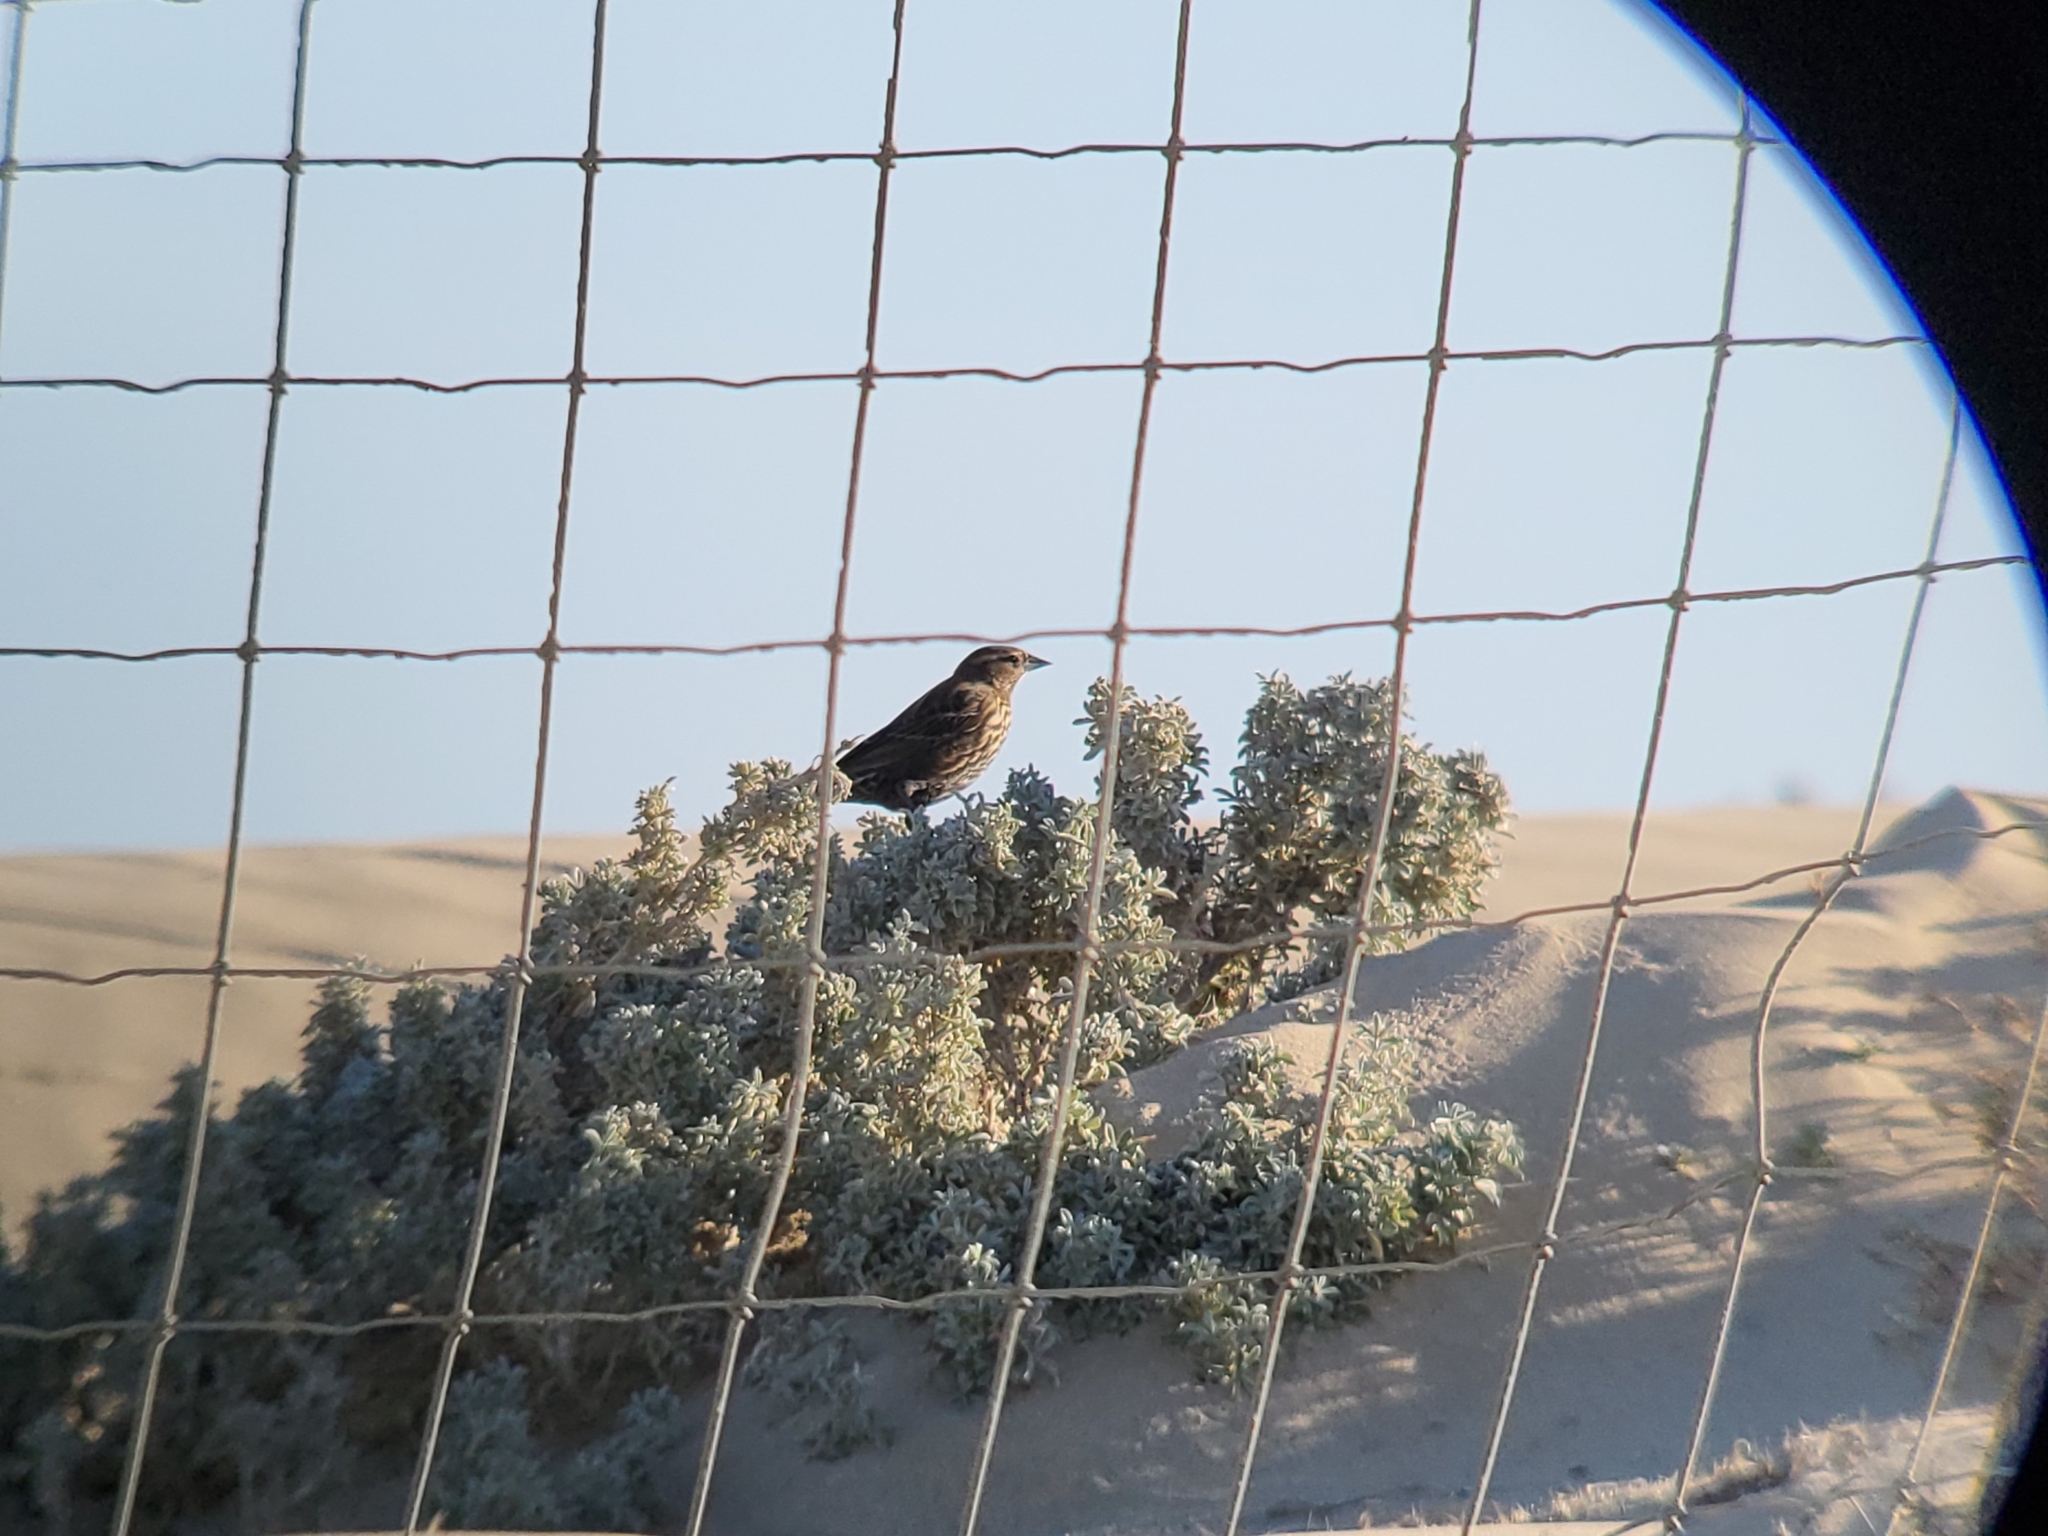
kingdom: Animalia
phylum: Chordata
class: Aves
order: Passeriformes
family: Icteridae
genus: Agelaius
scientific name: Agelaius phoeniceus
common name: Red-winged blackbird
